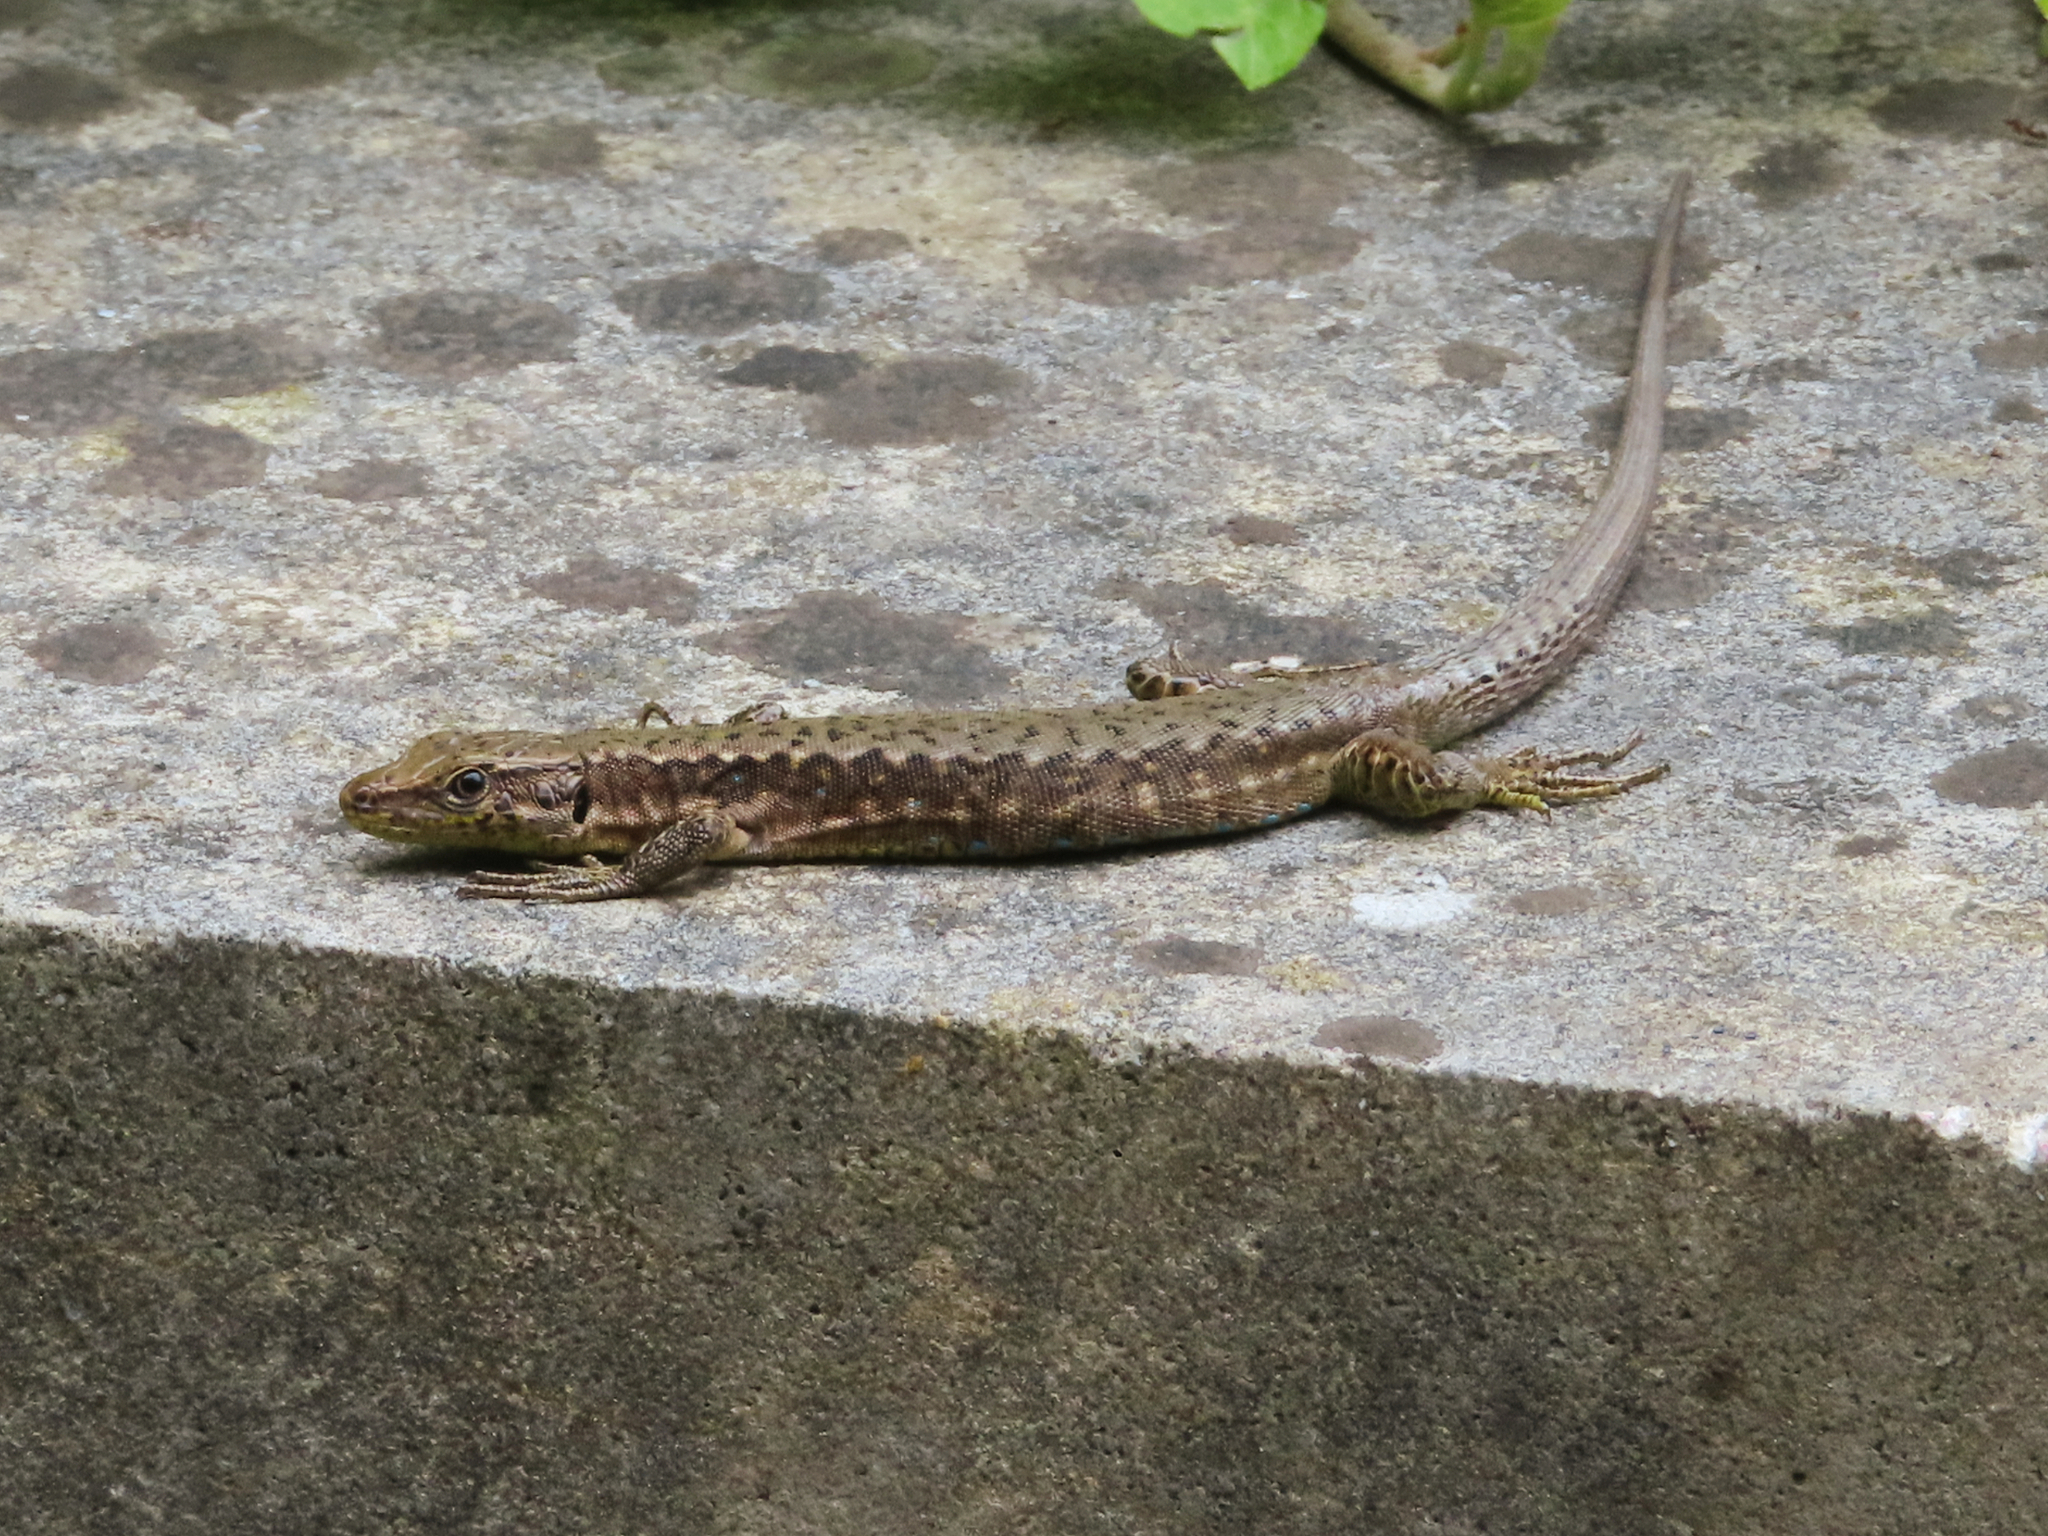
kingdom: Animalia
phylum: Chordata
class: Squamata
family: Lacertidae
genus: Darevskia
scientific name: Darevskia mixta
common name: Ajarian lizard
